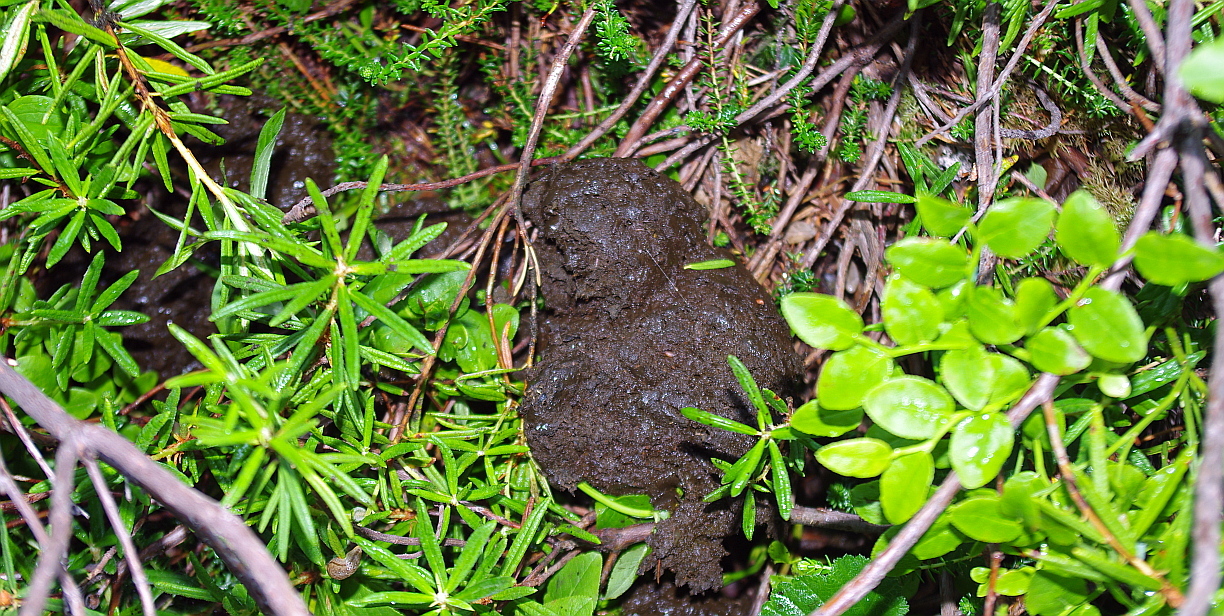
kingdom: Animalia
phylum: Chordata
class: Mammalia
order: Carnivora
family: Ursidae
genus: Ursus
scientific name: Ursus arctos
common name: Brown bear
